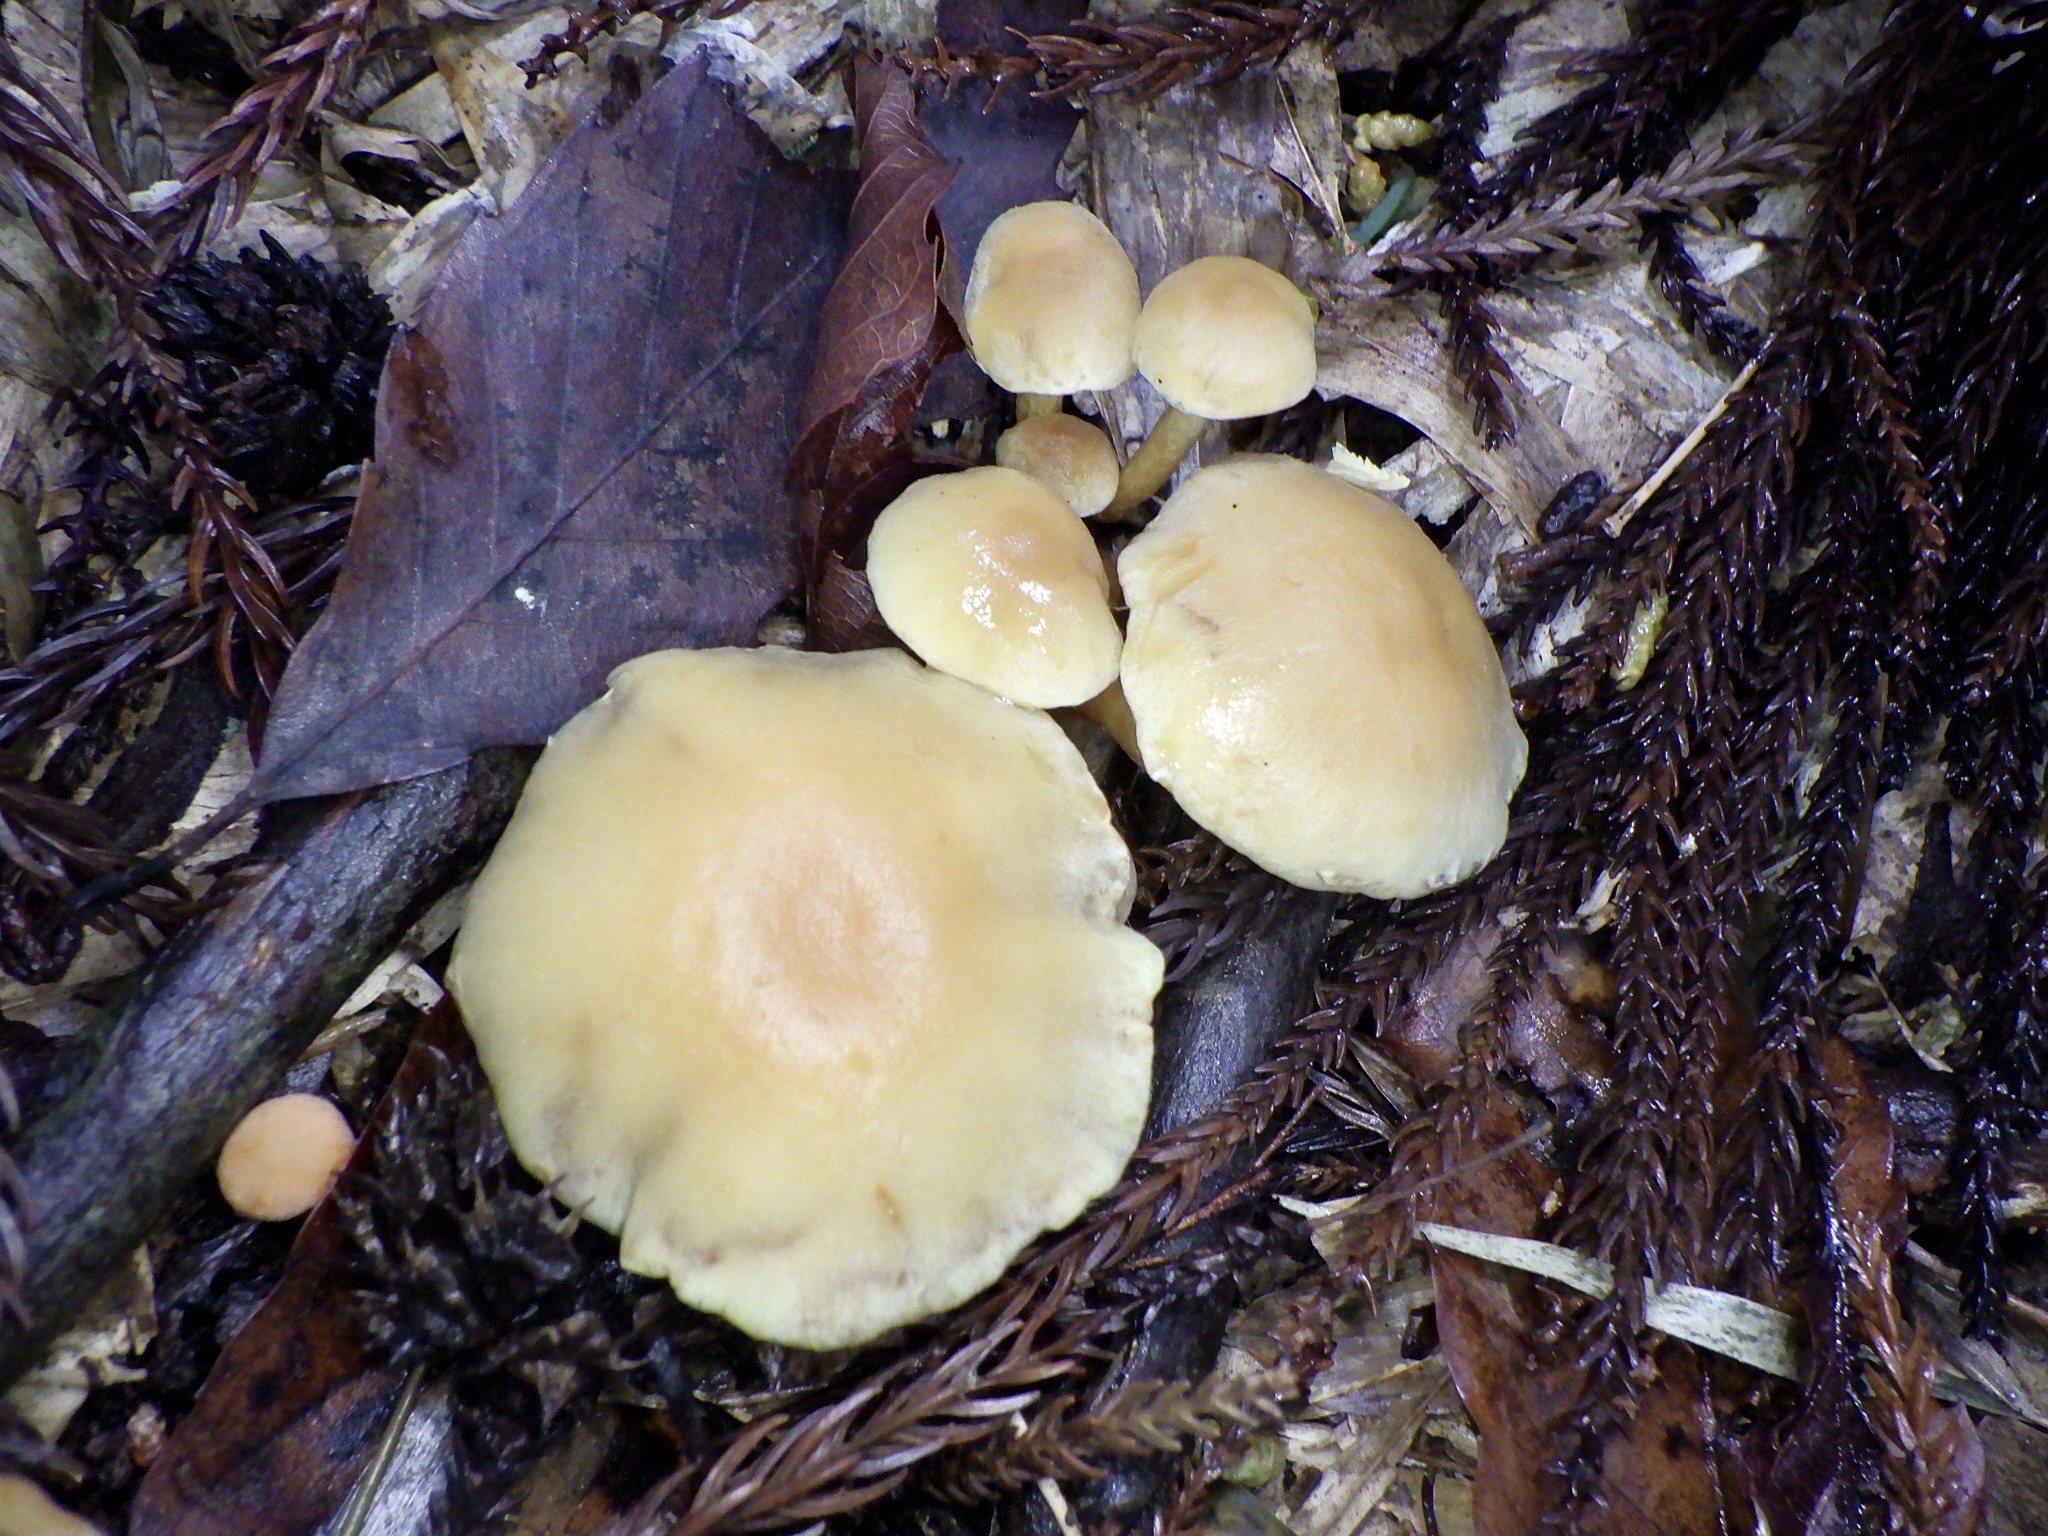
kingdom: Fungi
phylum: Basidiomycota
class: Agaricomycetes
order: Agaricales
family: Strophariaceae
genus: Hypholoma
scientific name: Hypholoma fasciculare
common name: Sulphur tuft
